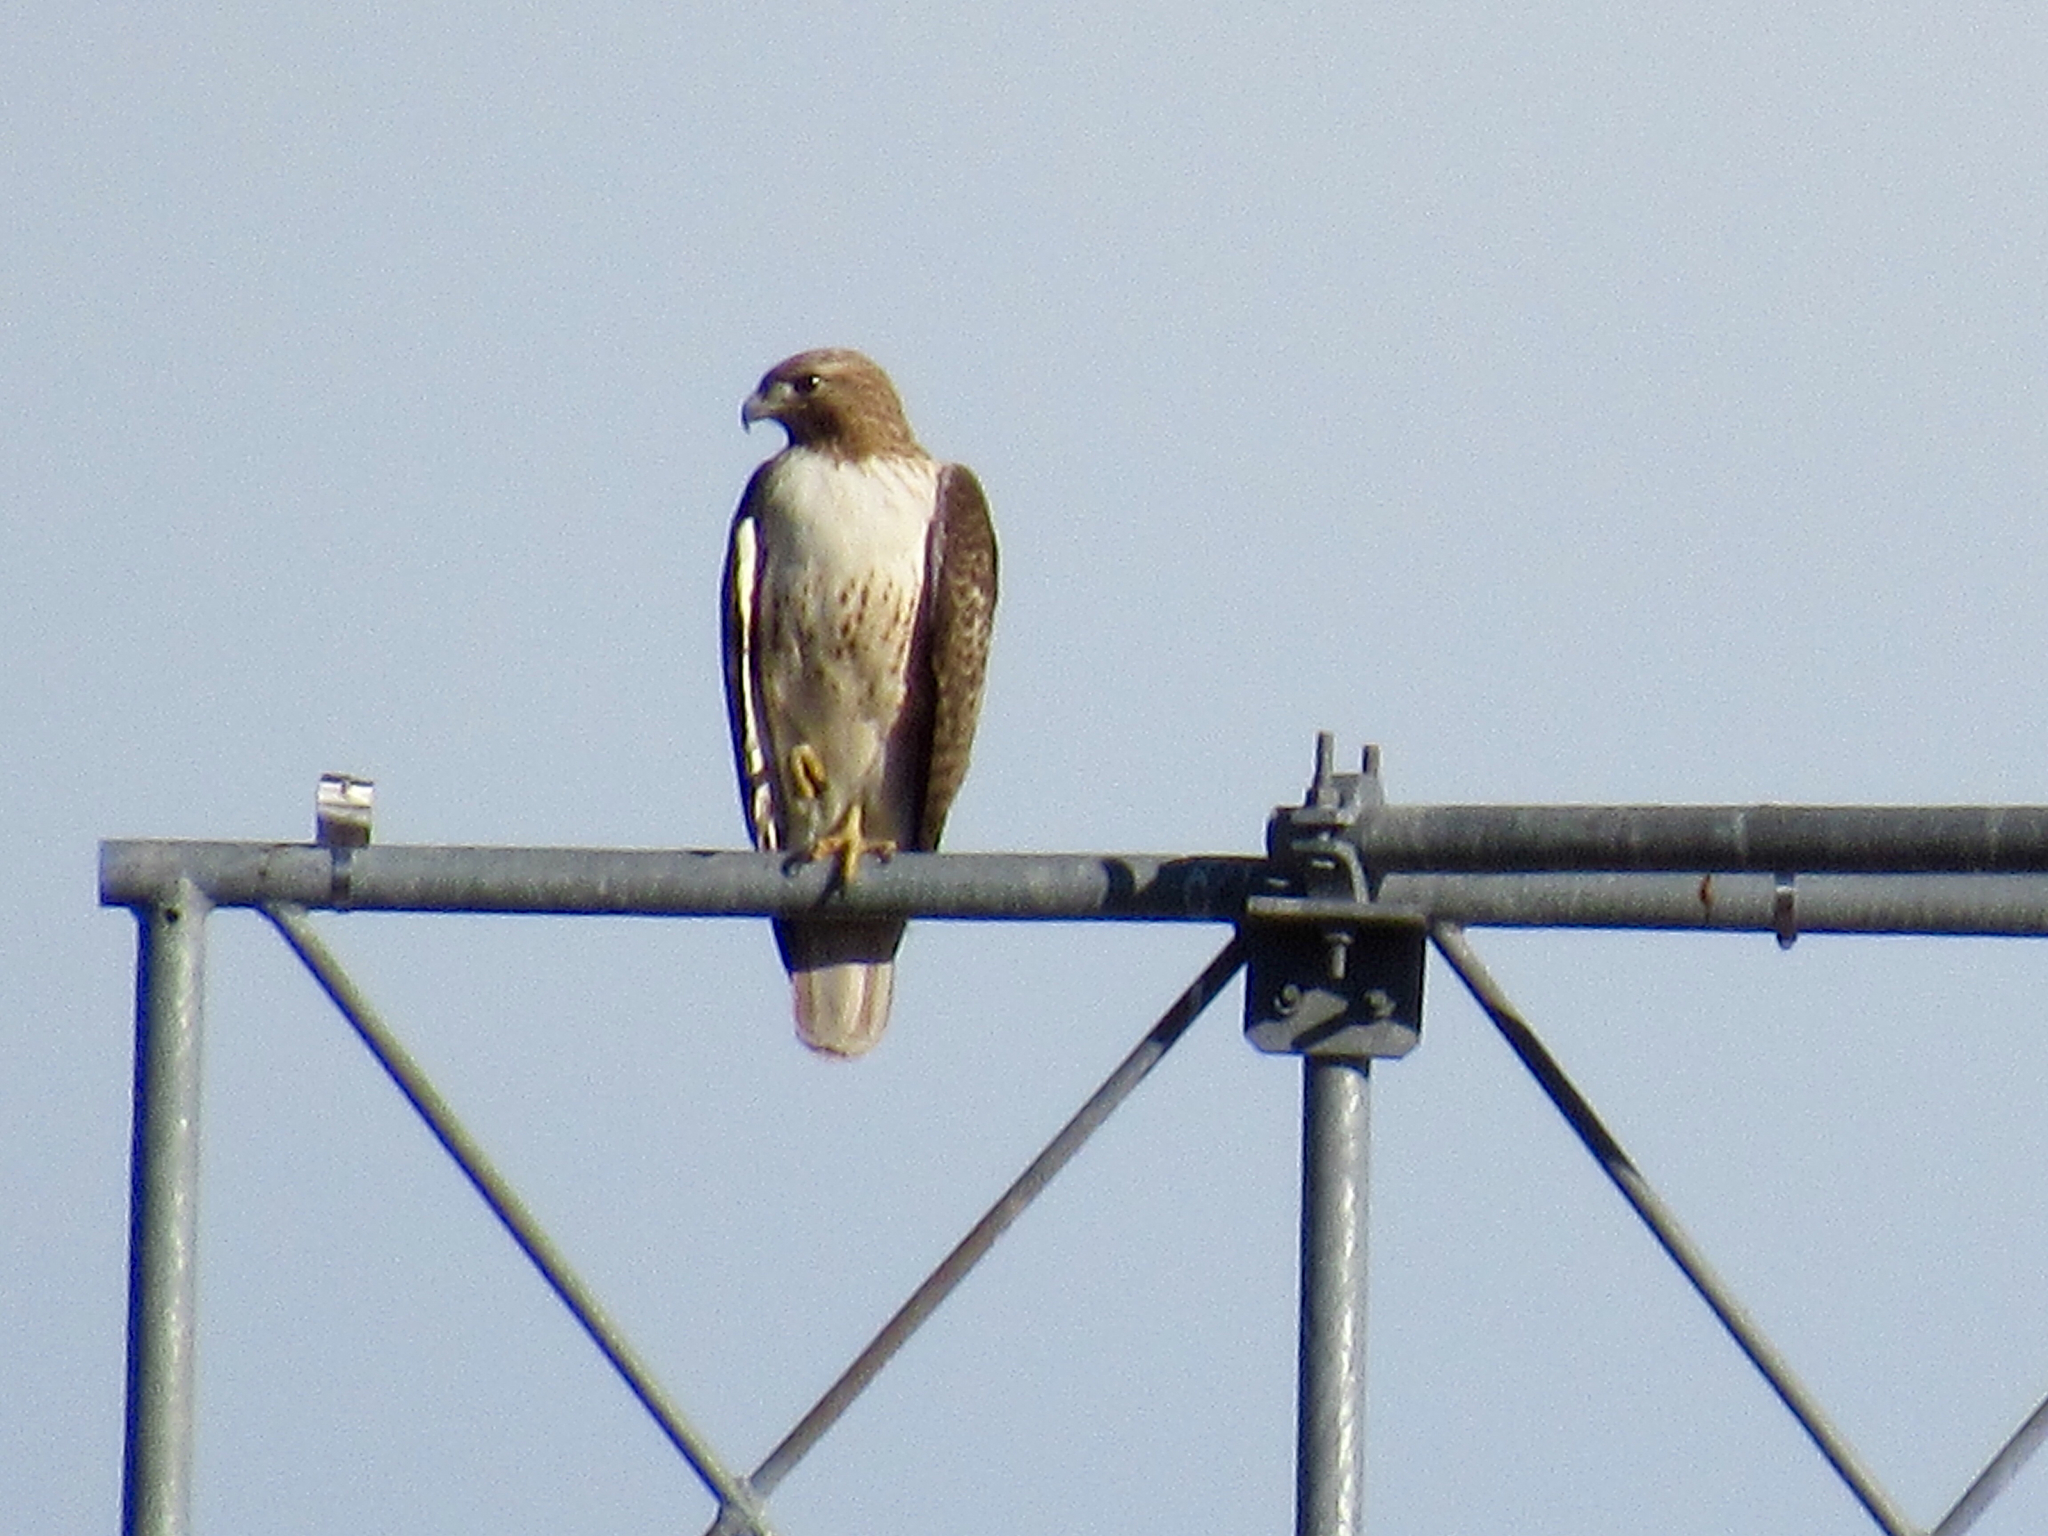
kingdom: Animalia
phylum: Chordata
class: Aves
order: Accipitriformes
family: Accipitridae
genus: Buteo
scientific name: Buteo jamaicensis
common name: Red-tailed hawk
